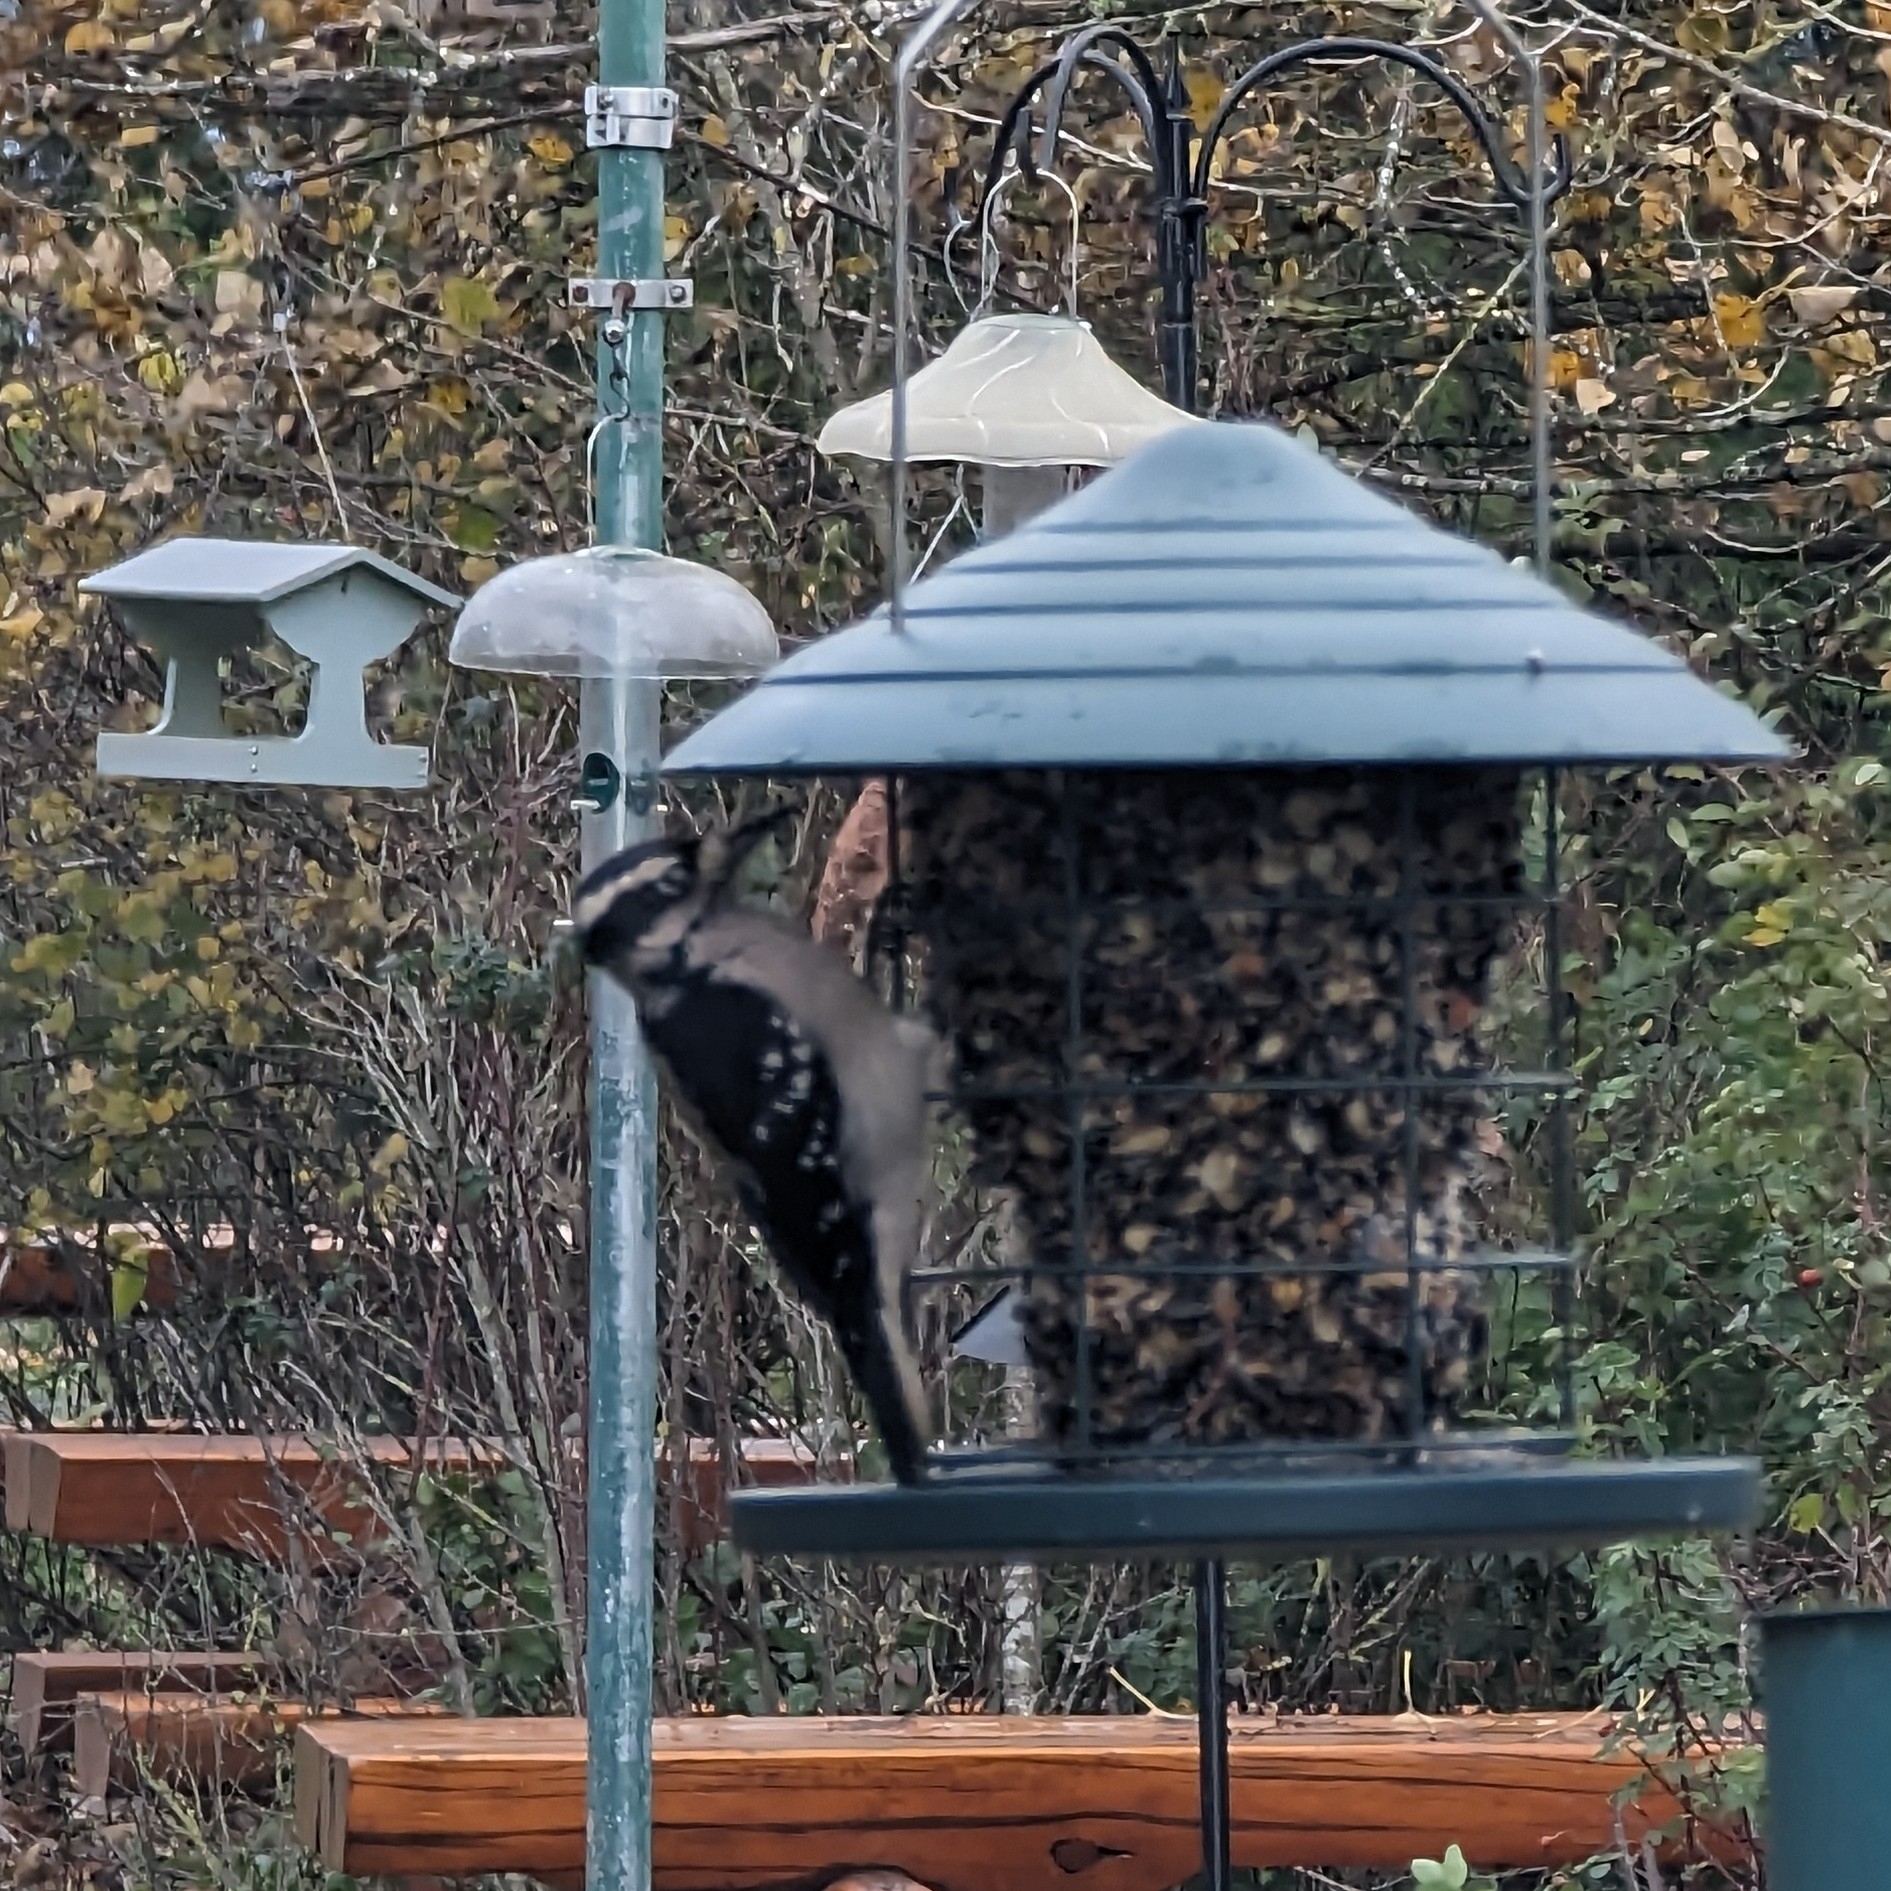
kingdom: Animalia
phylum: Chordata
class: Aves
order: Piciformes
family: Picidae
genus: Leuconotopicus
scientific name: Leuconotopicus villosus
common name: Hairy woodpecker
